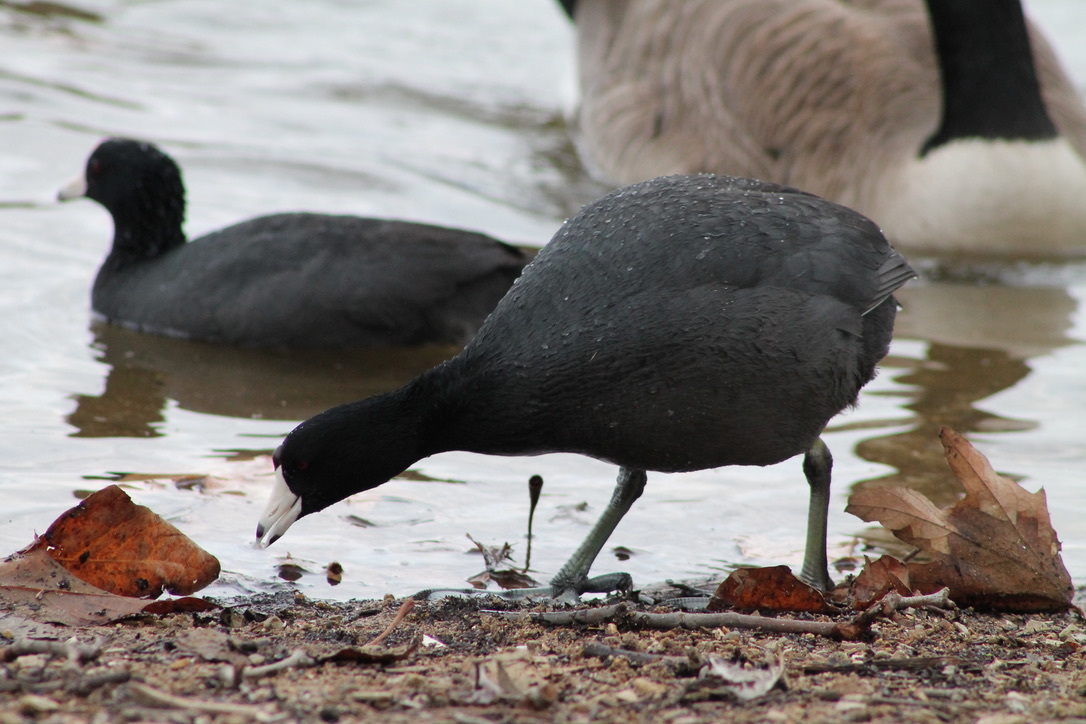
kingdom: Animalia
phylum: Chordata
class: Aves
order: Gruiformes
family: Rallidae
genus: Fulica
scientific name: Fulica americana
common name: American coot
